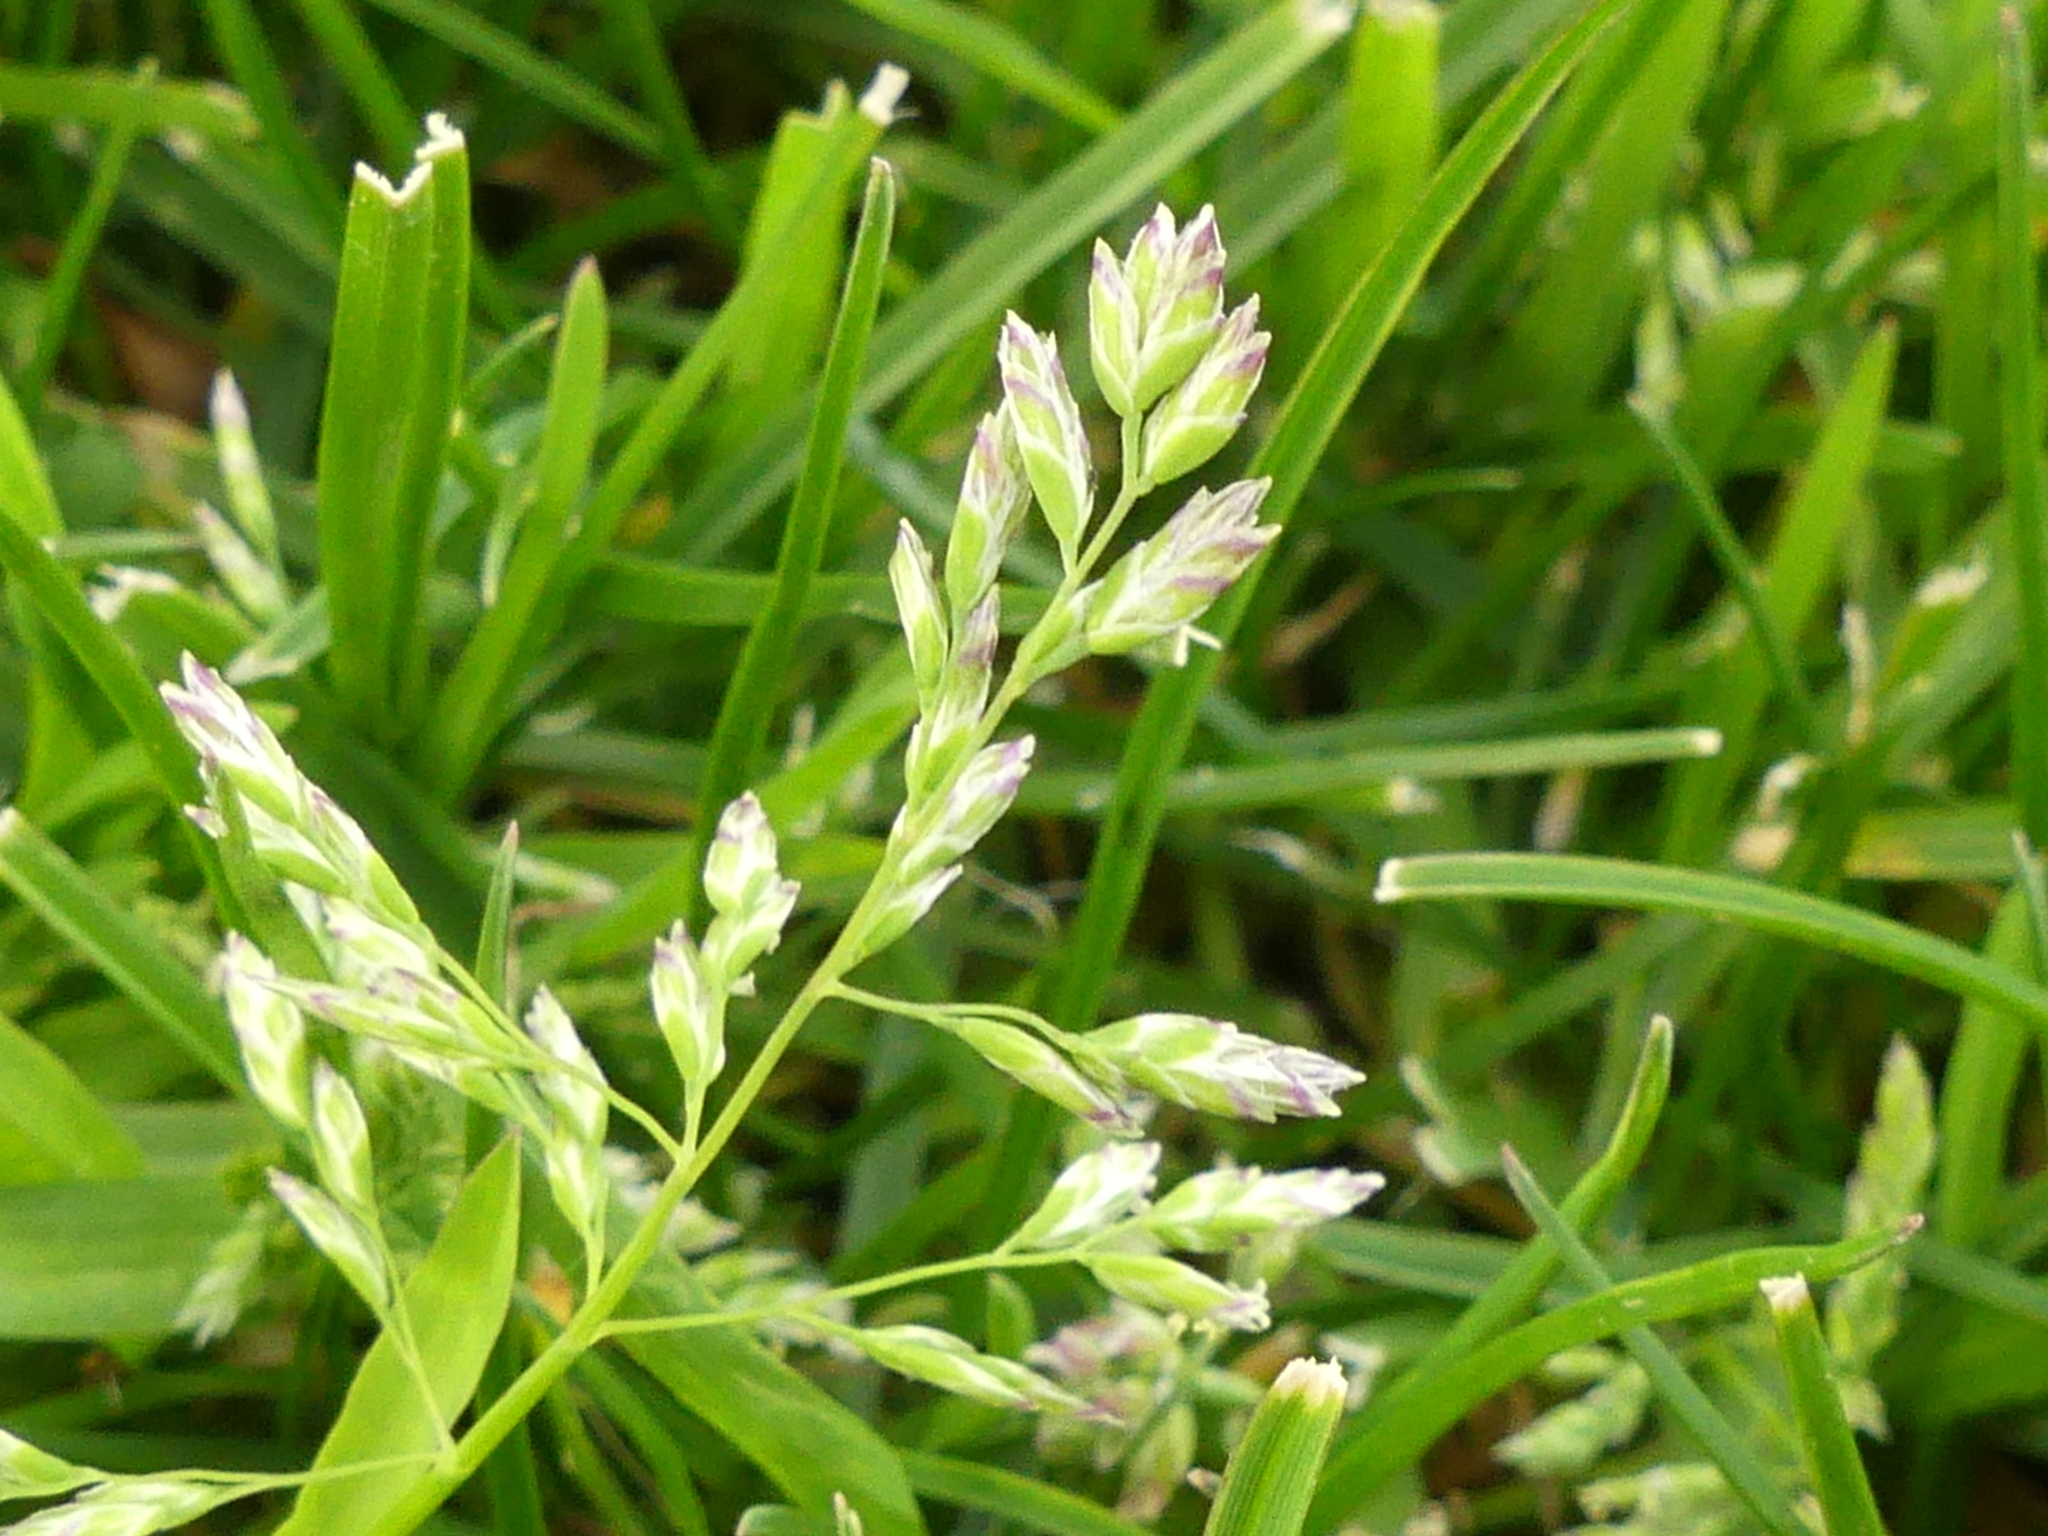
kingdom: Plantae
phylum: Tracheophyta
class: Liliopsida
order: Poales
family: Poaceae
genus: Poa
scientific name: Poa annua
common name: Annual bluegrass
